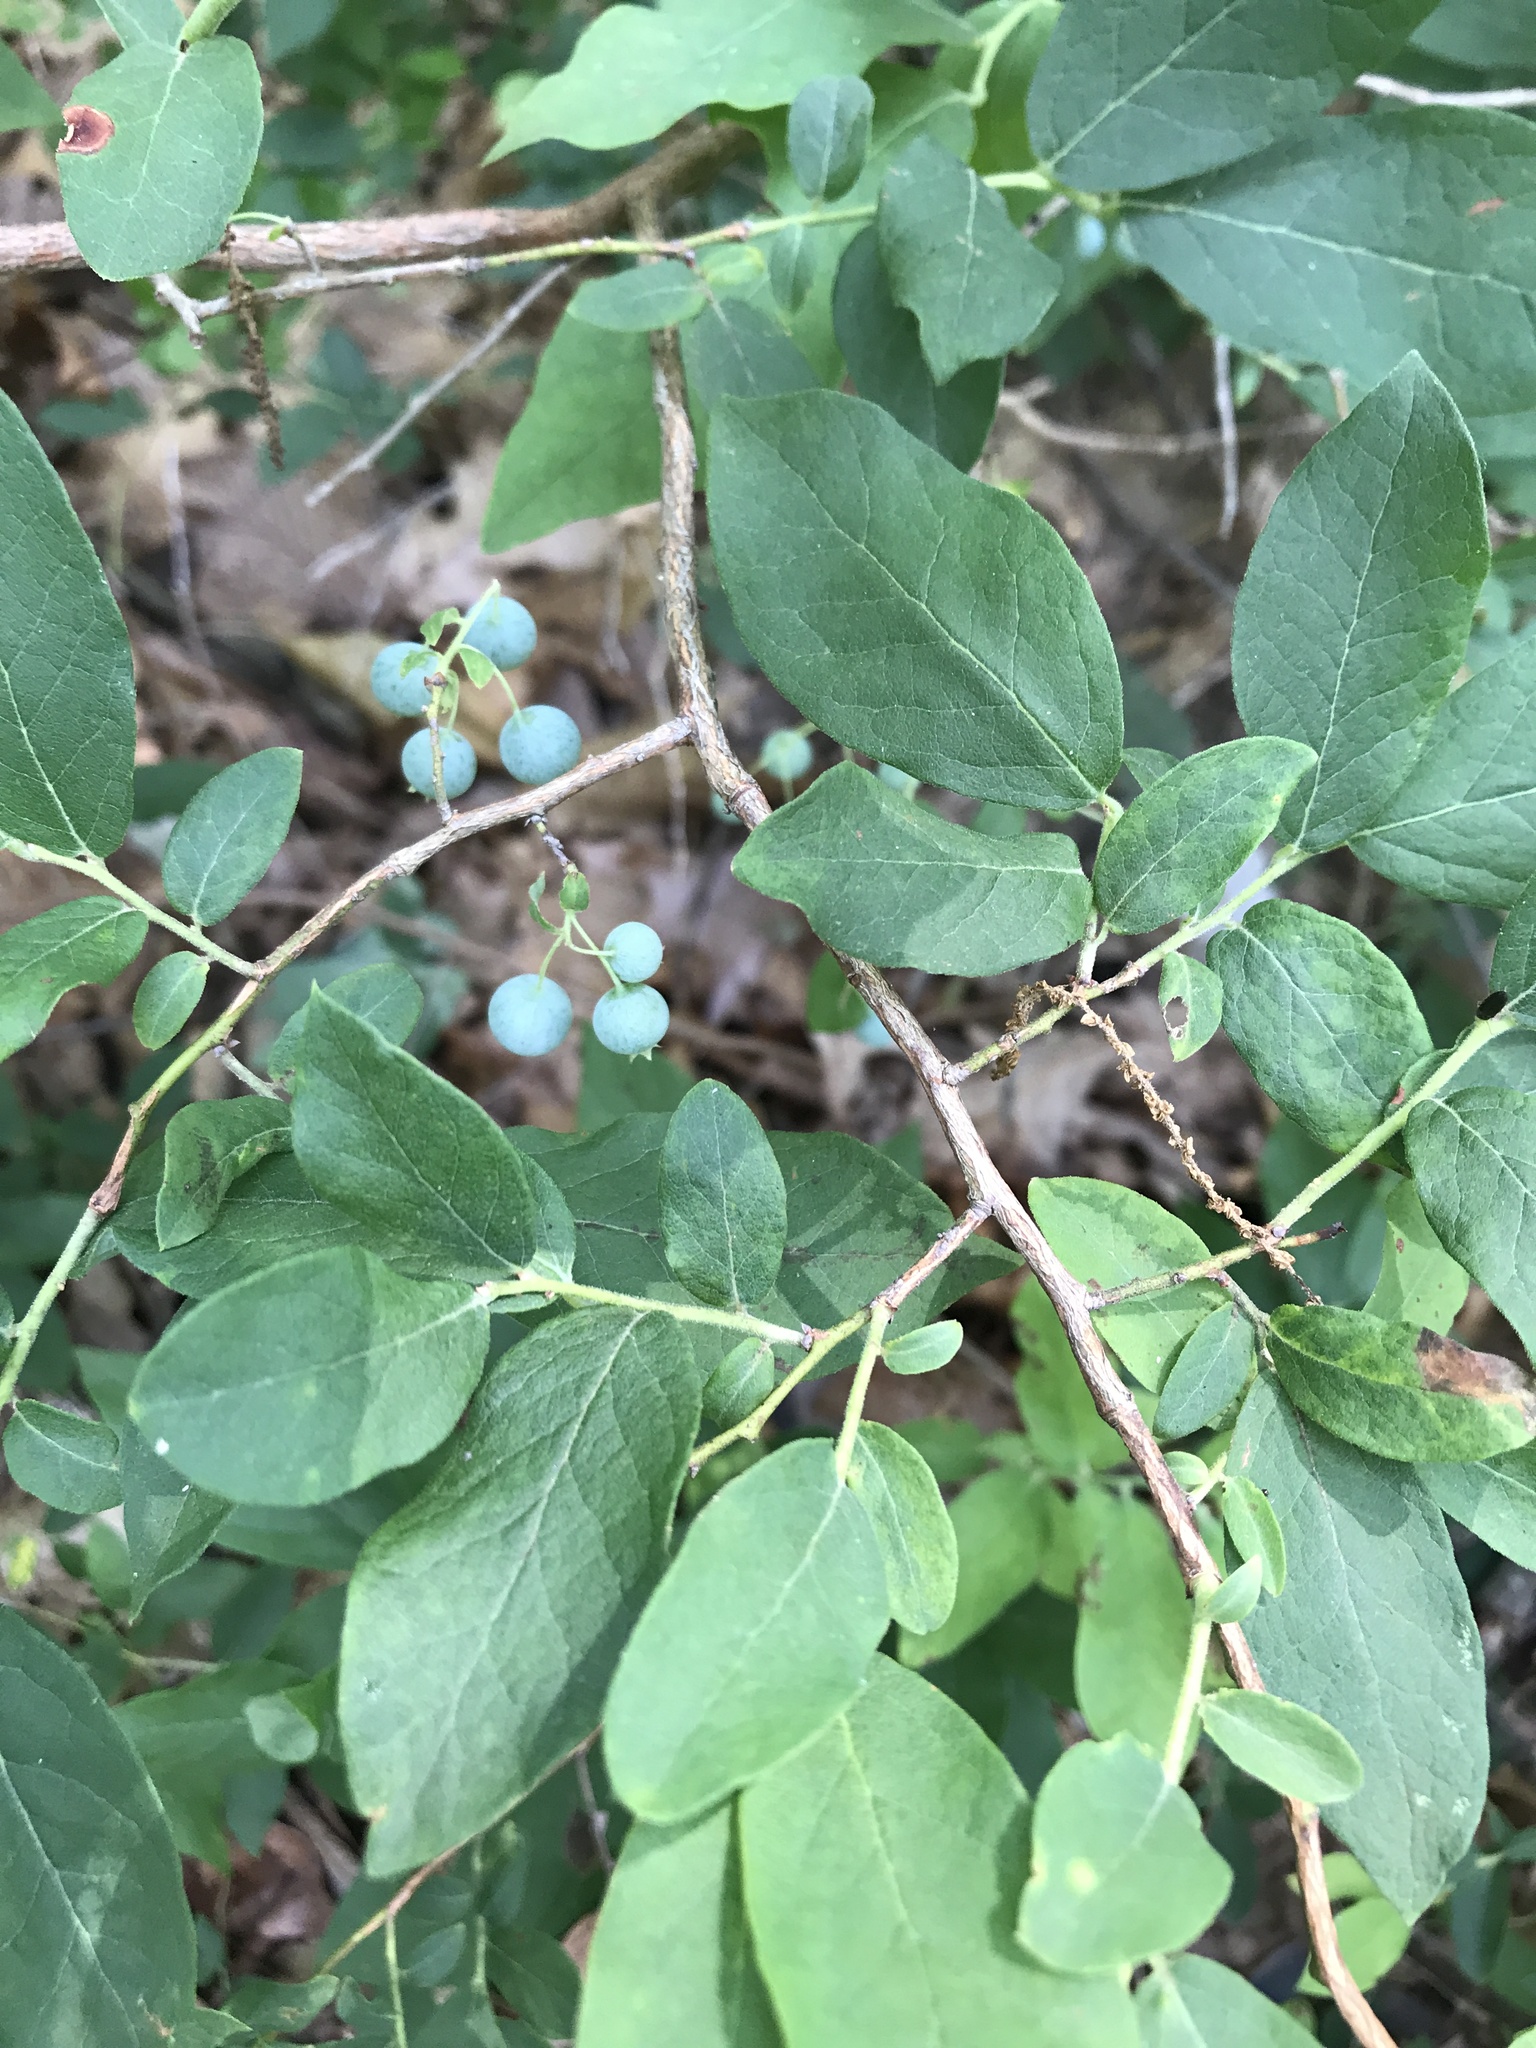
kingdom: Plantae
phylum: Tracheophyta
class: Magnoliopsida
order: Ericales
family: Ericaceae
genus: Vaccinium
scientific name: Vaccinium stamineum
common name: Deerberry
